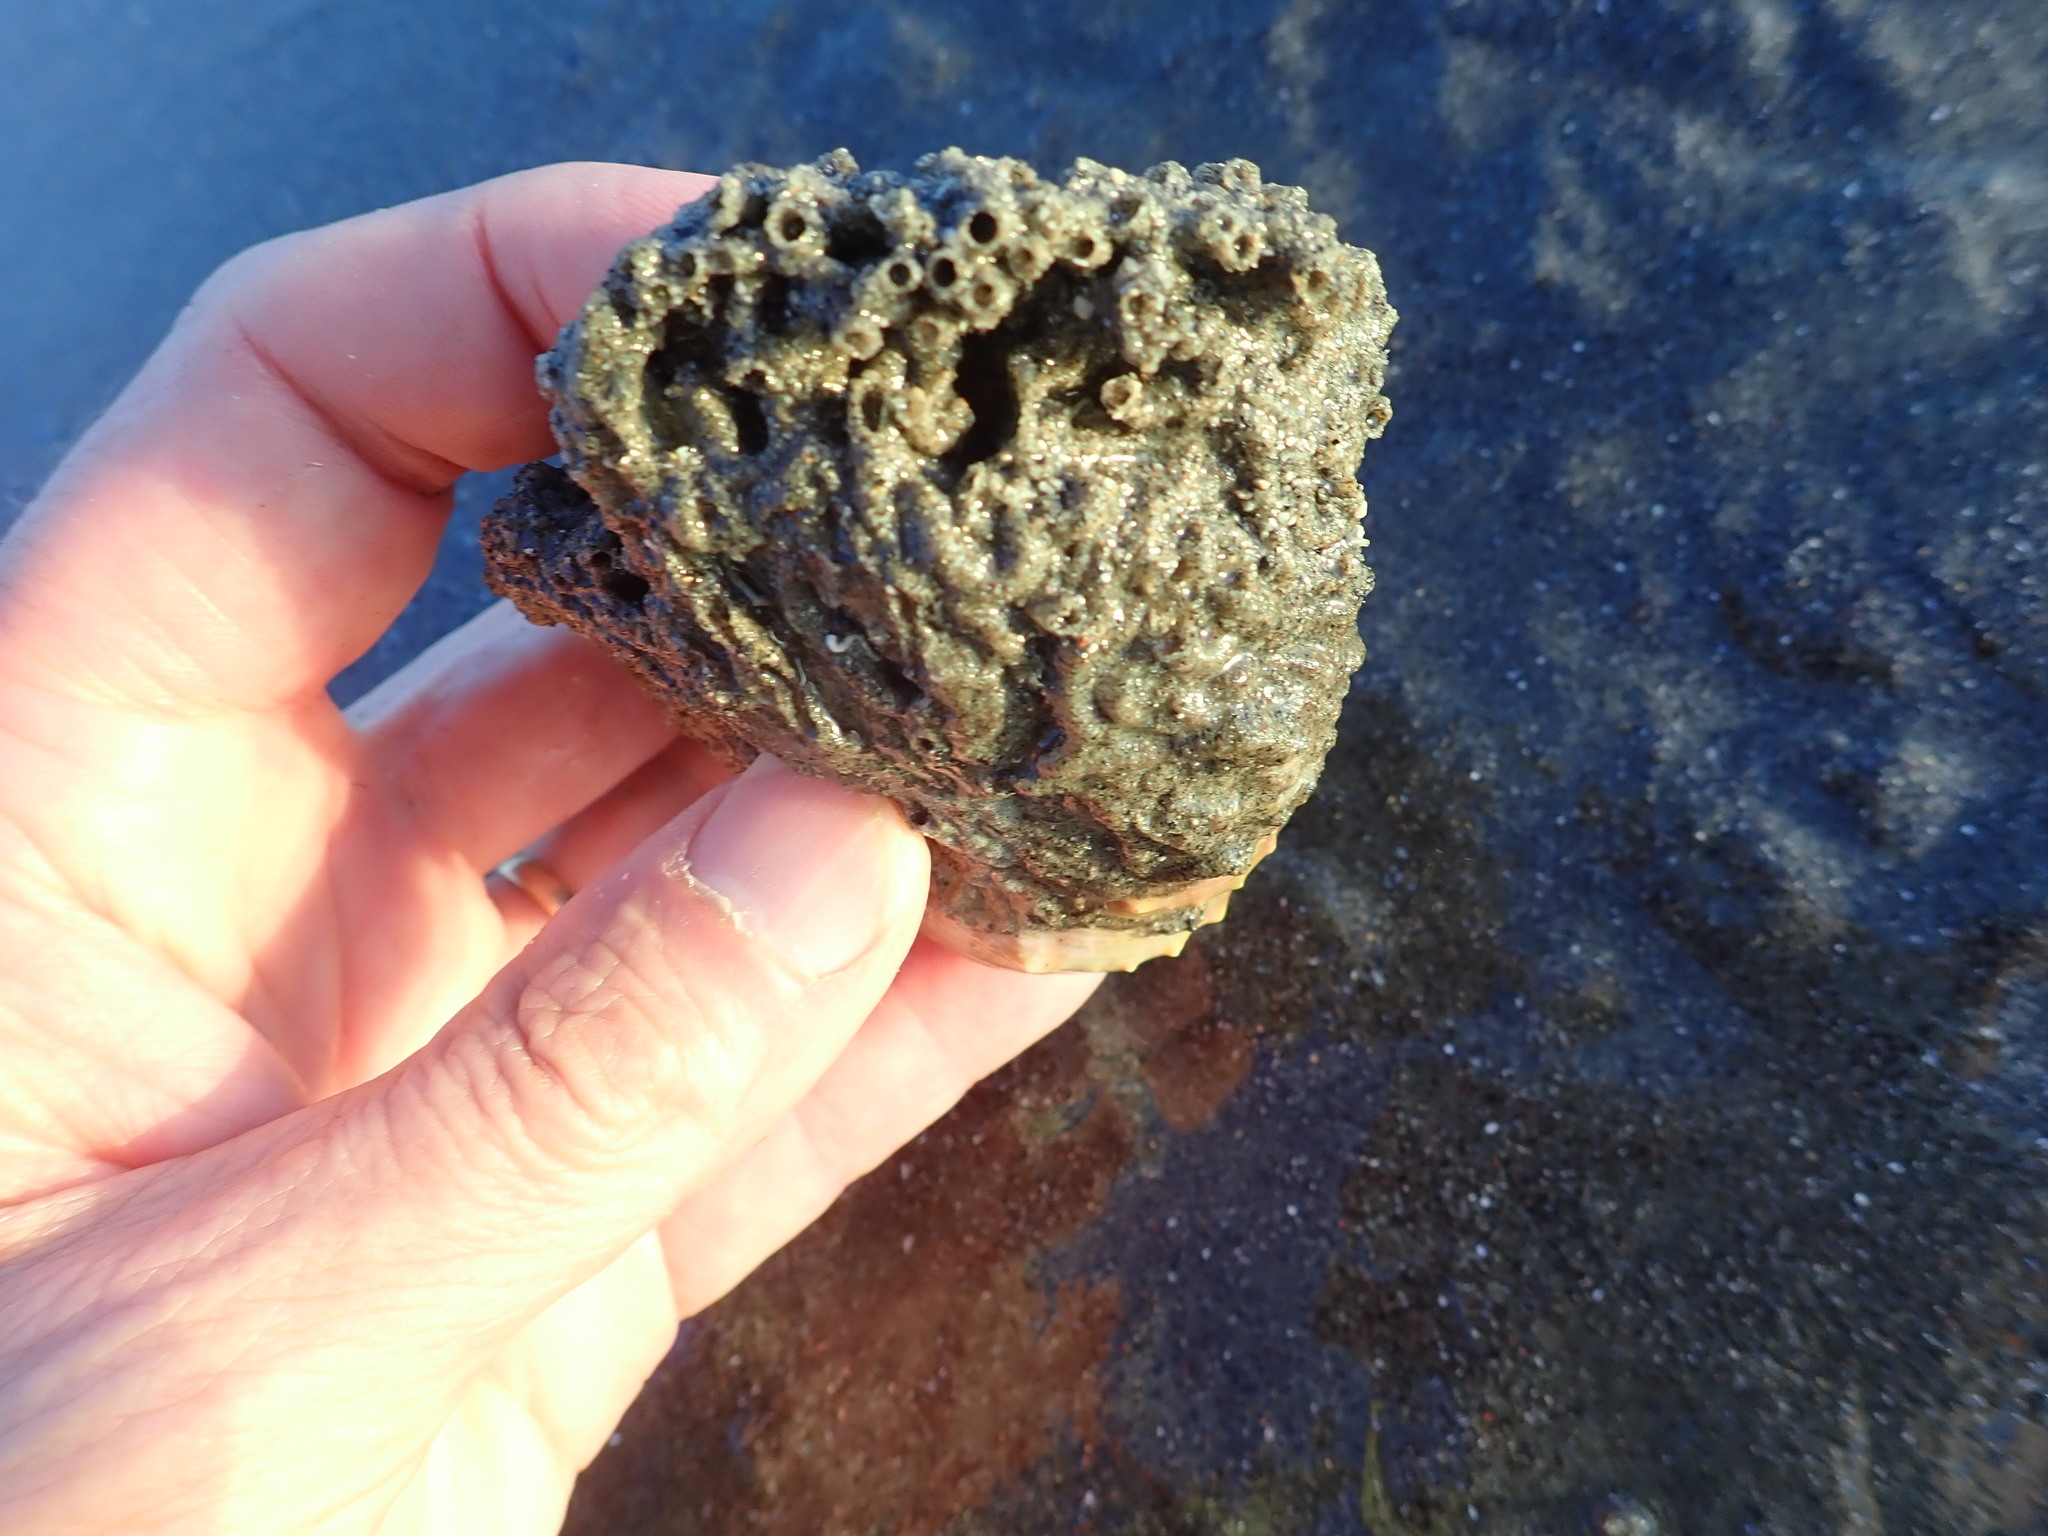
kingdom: Animalia
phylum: Annelida
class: Polychaeta
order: Sabellida
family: Sabellariidae
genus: Neosabellaria
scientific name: Neosabellaria kaiparaensis
